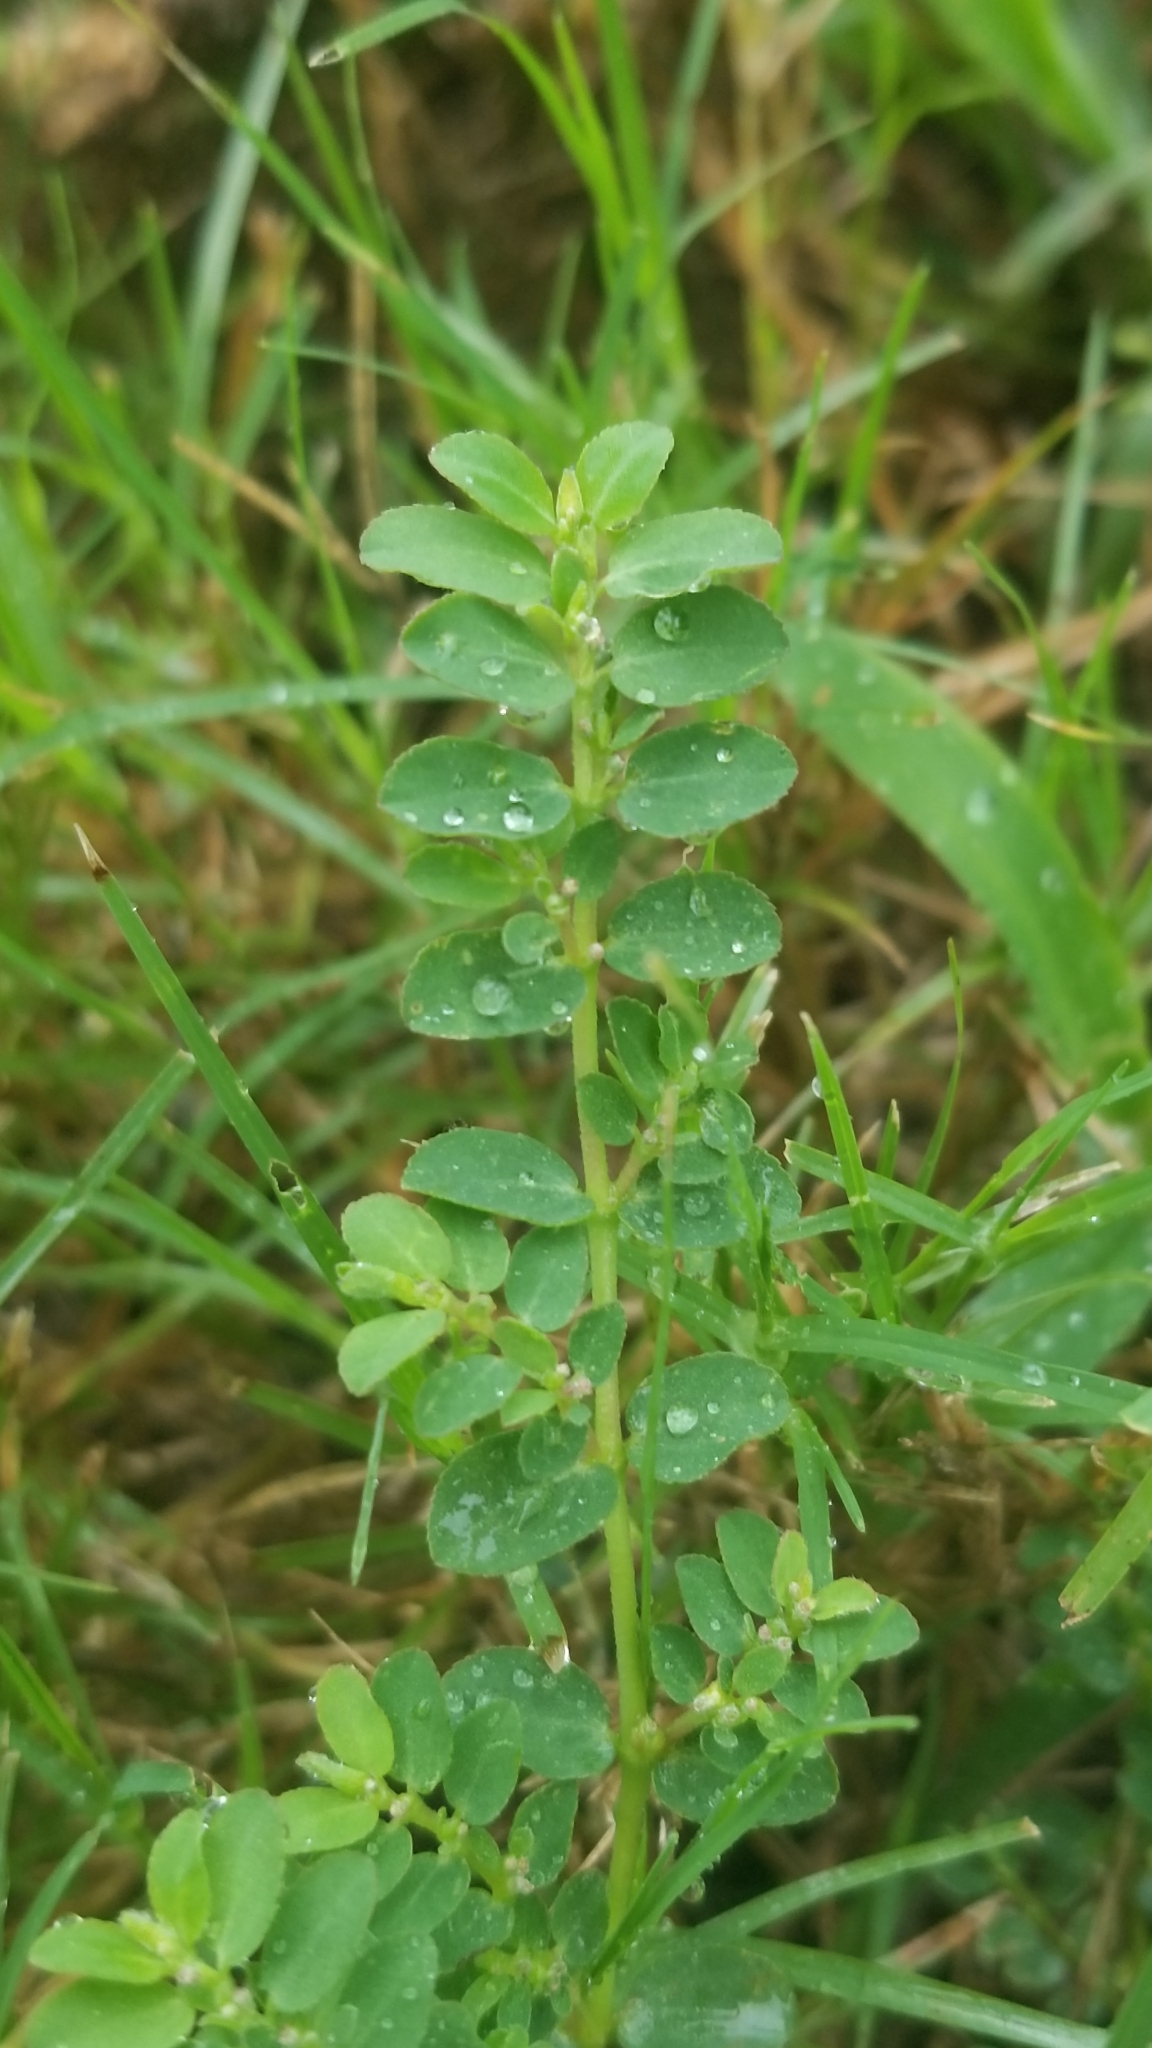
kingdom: Plantae
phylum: Tracheophyta
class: Magnoliopsida
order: Malpighiales
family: Euphorbiaceae
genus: Euphorbia
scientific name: Euphorbia prostrata
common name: Prostrate sandmat
